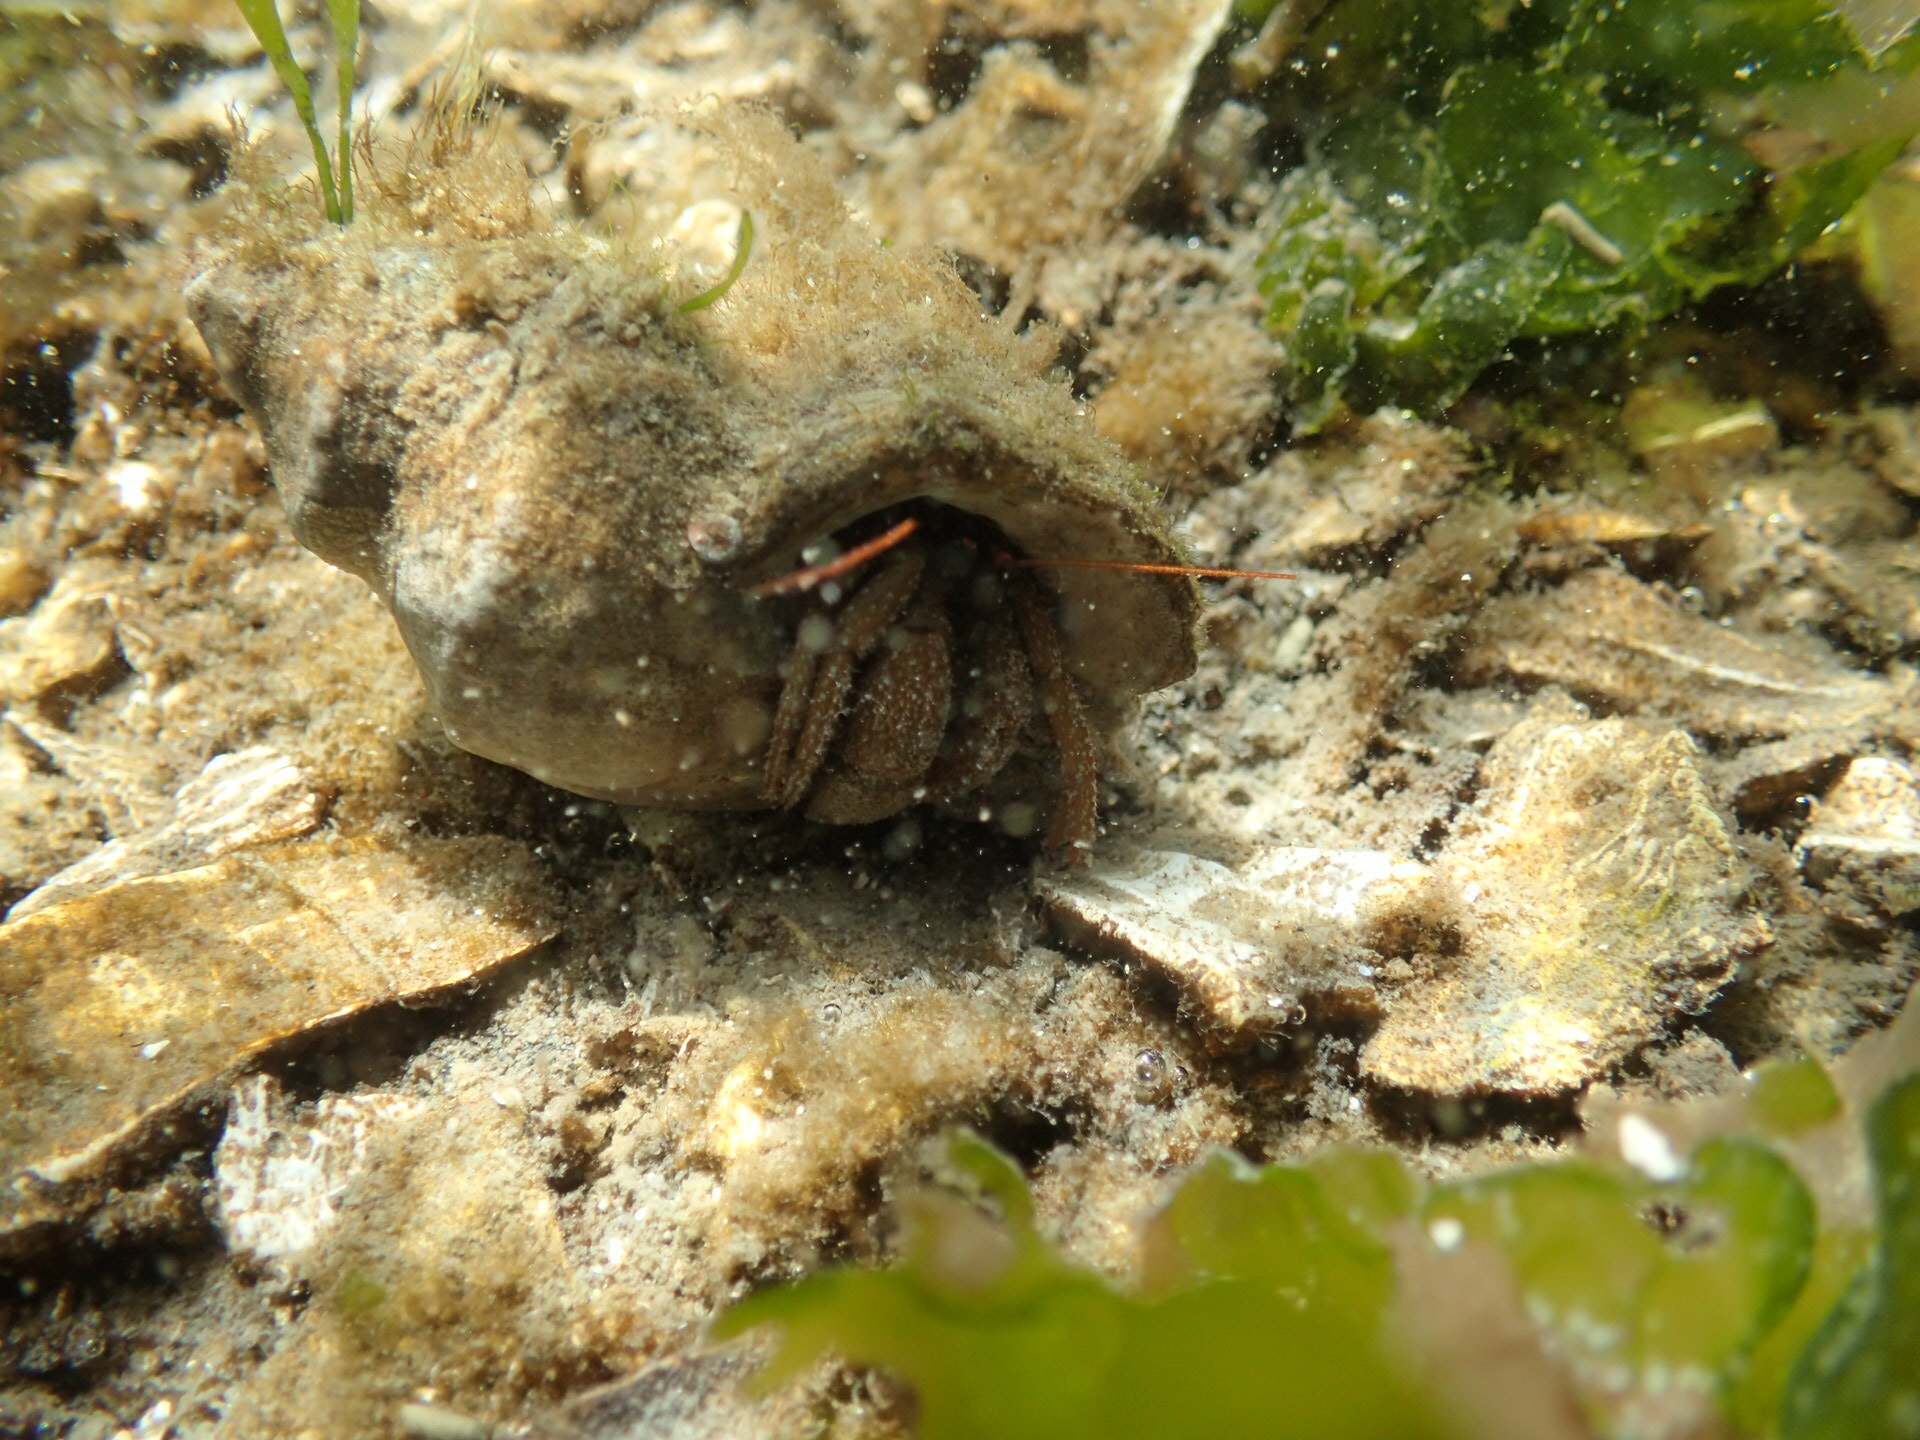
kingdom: Animalia
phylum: Arthropoda
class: Malacostraca
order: Decapoda
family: Paguridae
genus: Pagurus
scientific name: Pagurus granosimanus
